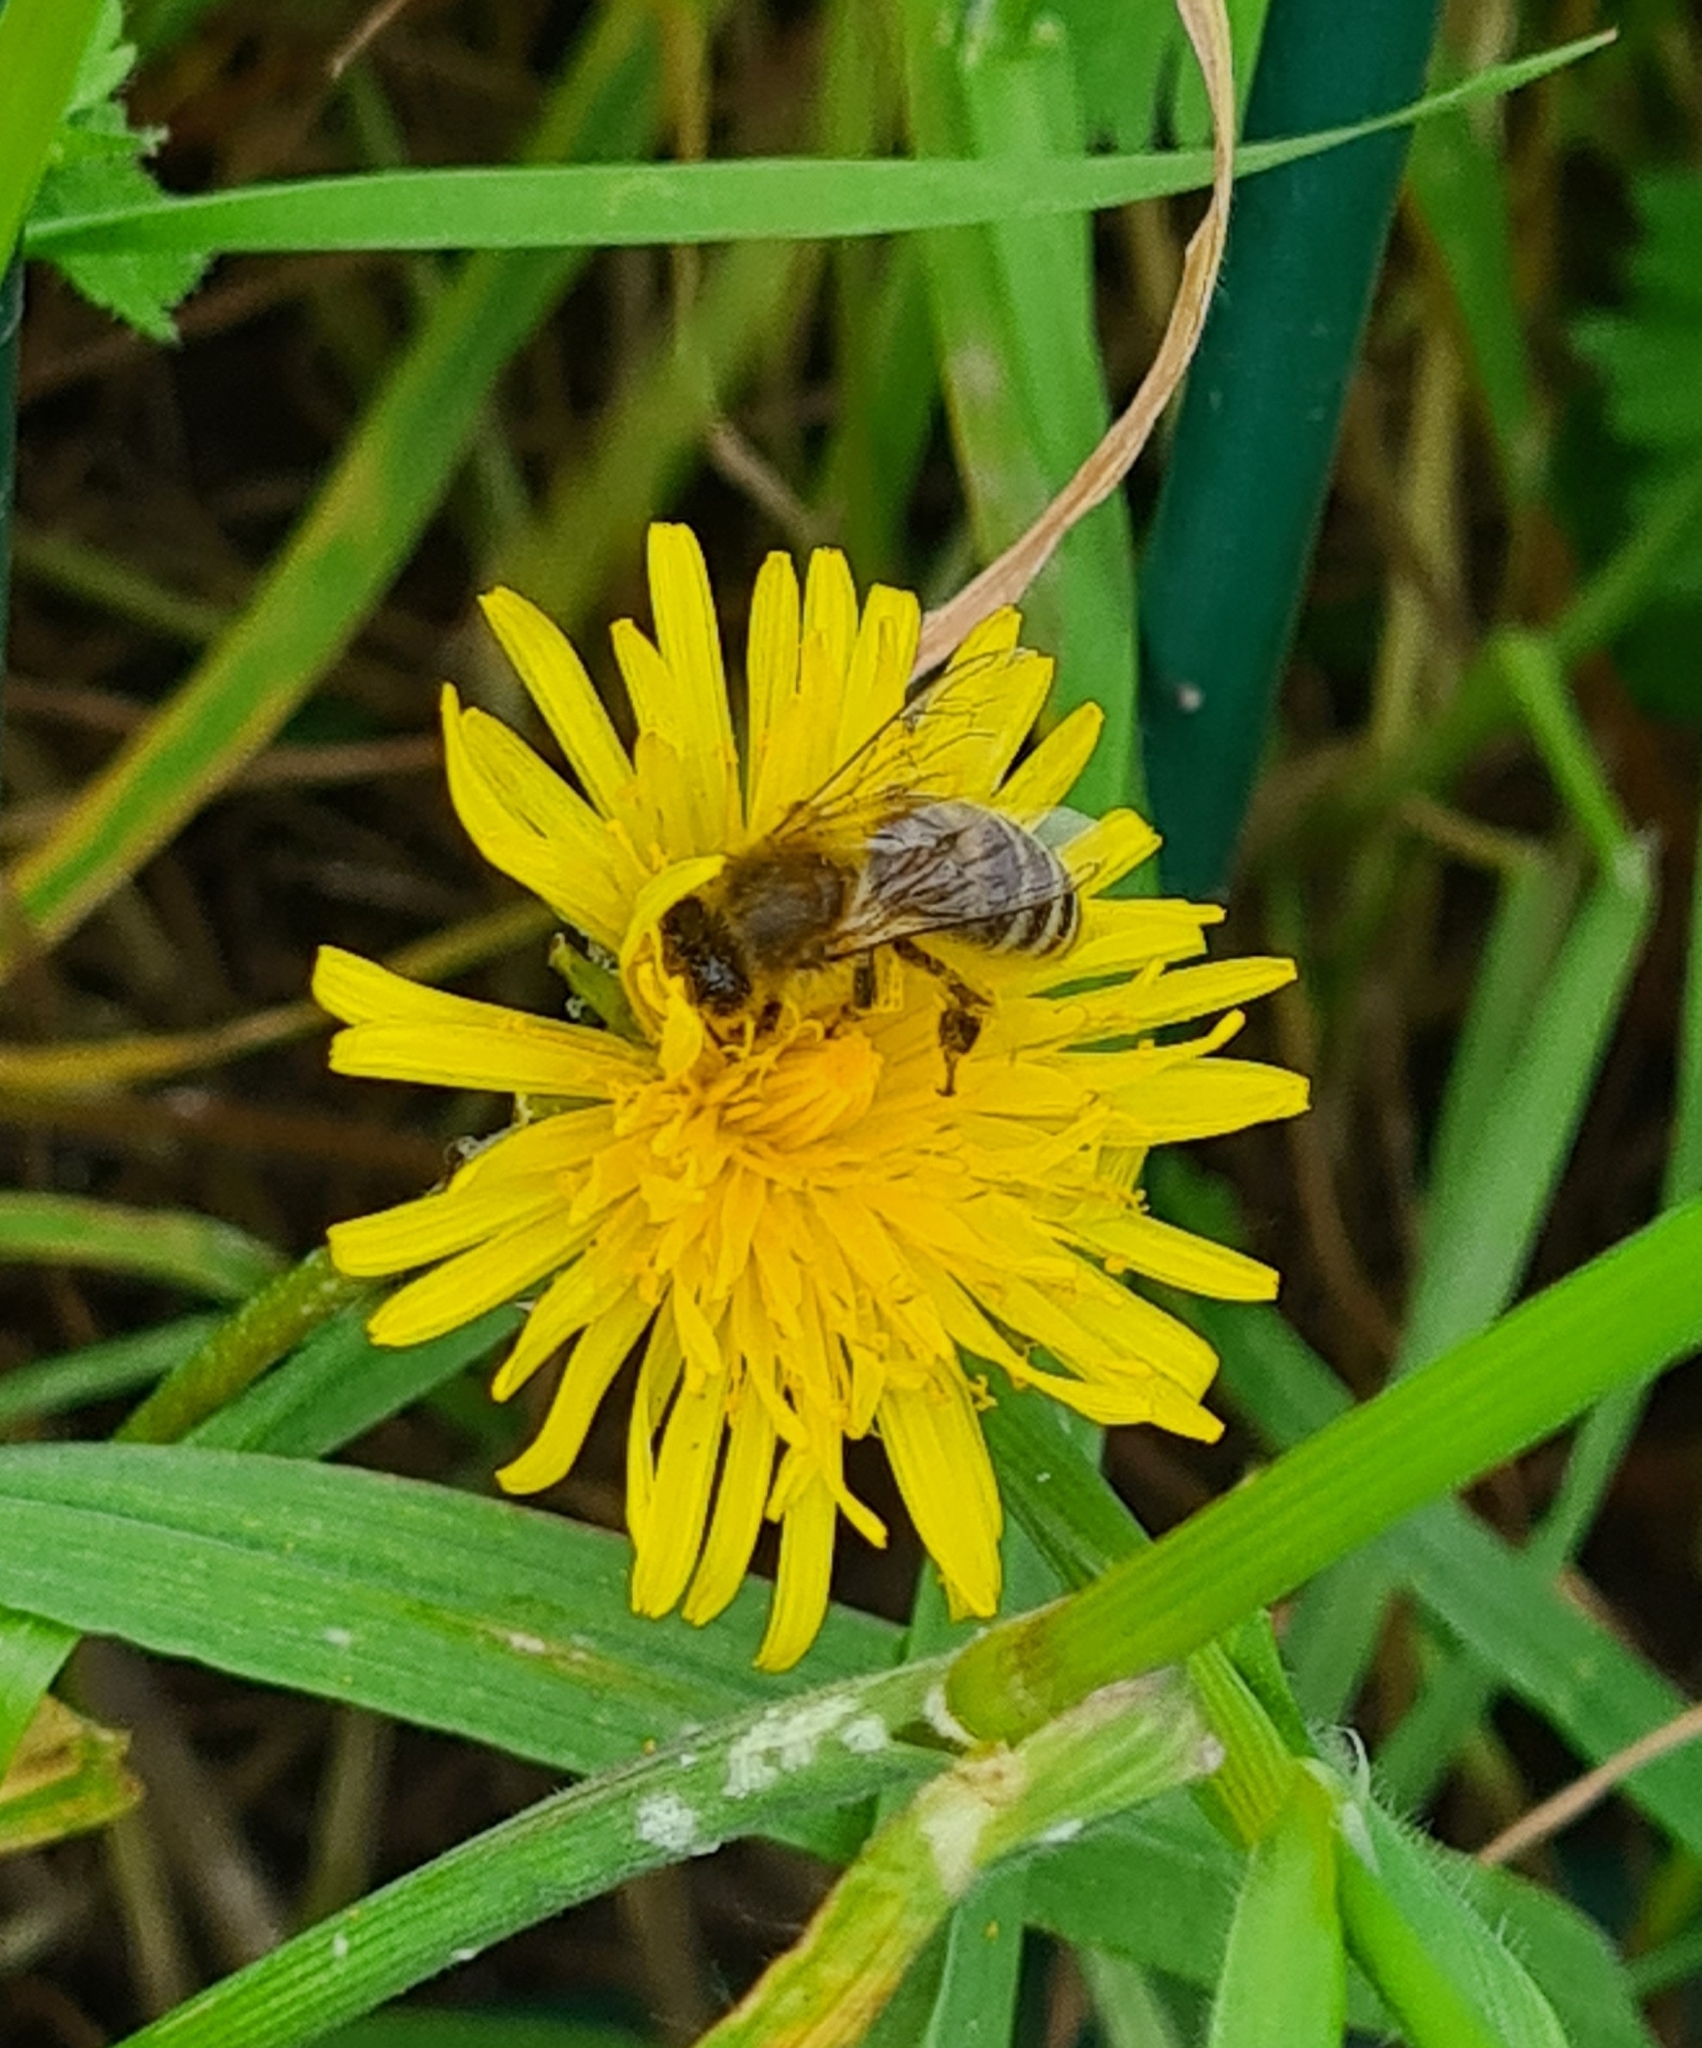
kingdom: Animalia
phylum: Arthropoda
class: Insecta
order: Hymenoptera
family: Apidae
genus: Apis
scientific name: Apis mellifera
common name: Honey bee
